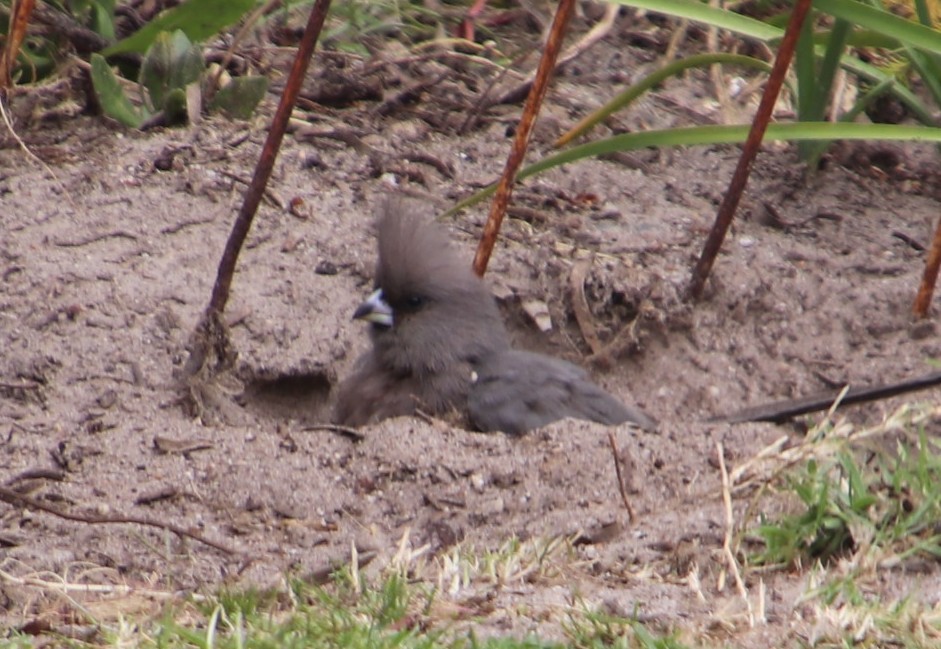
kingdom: Animalia
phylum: Chordata
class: Aves
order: Coliiformes
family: Coliidae
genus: Colius
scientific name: Colius striatus
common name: Speckled mousebird
